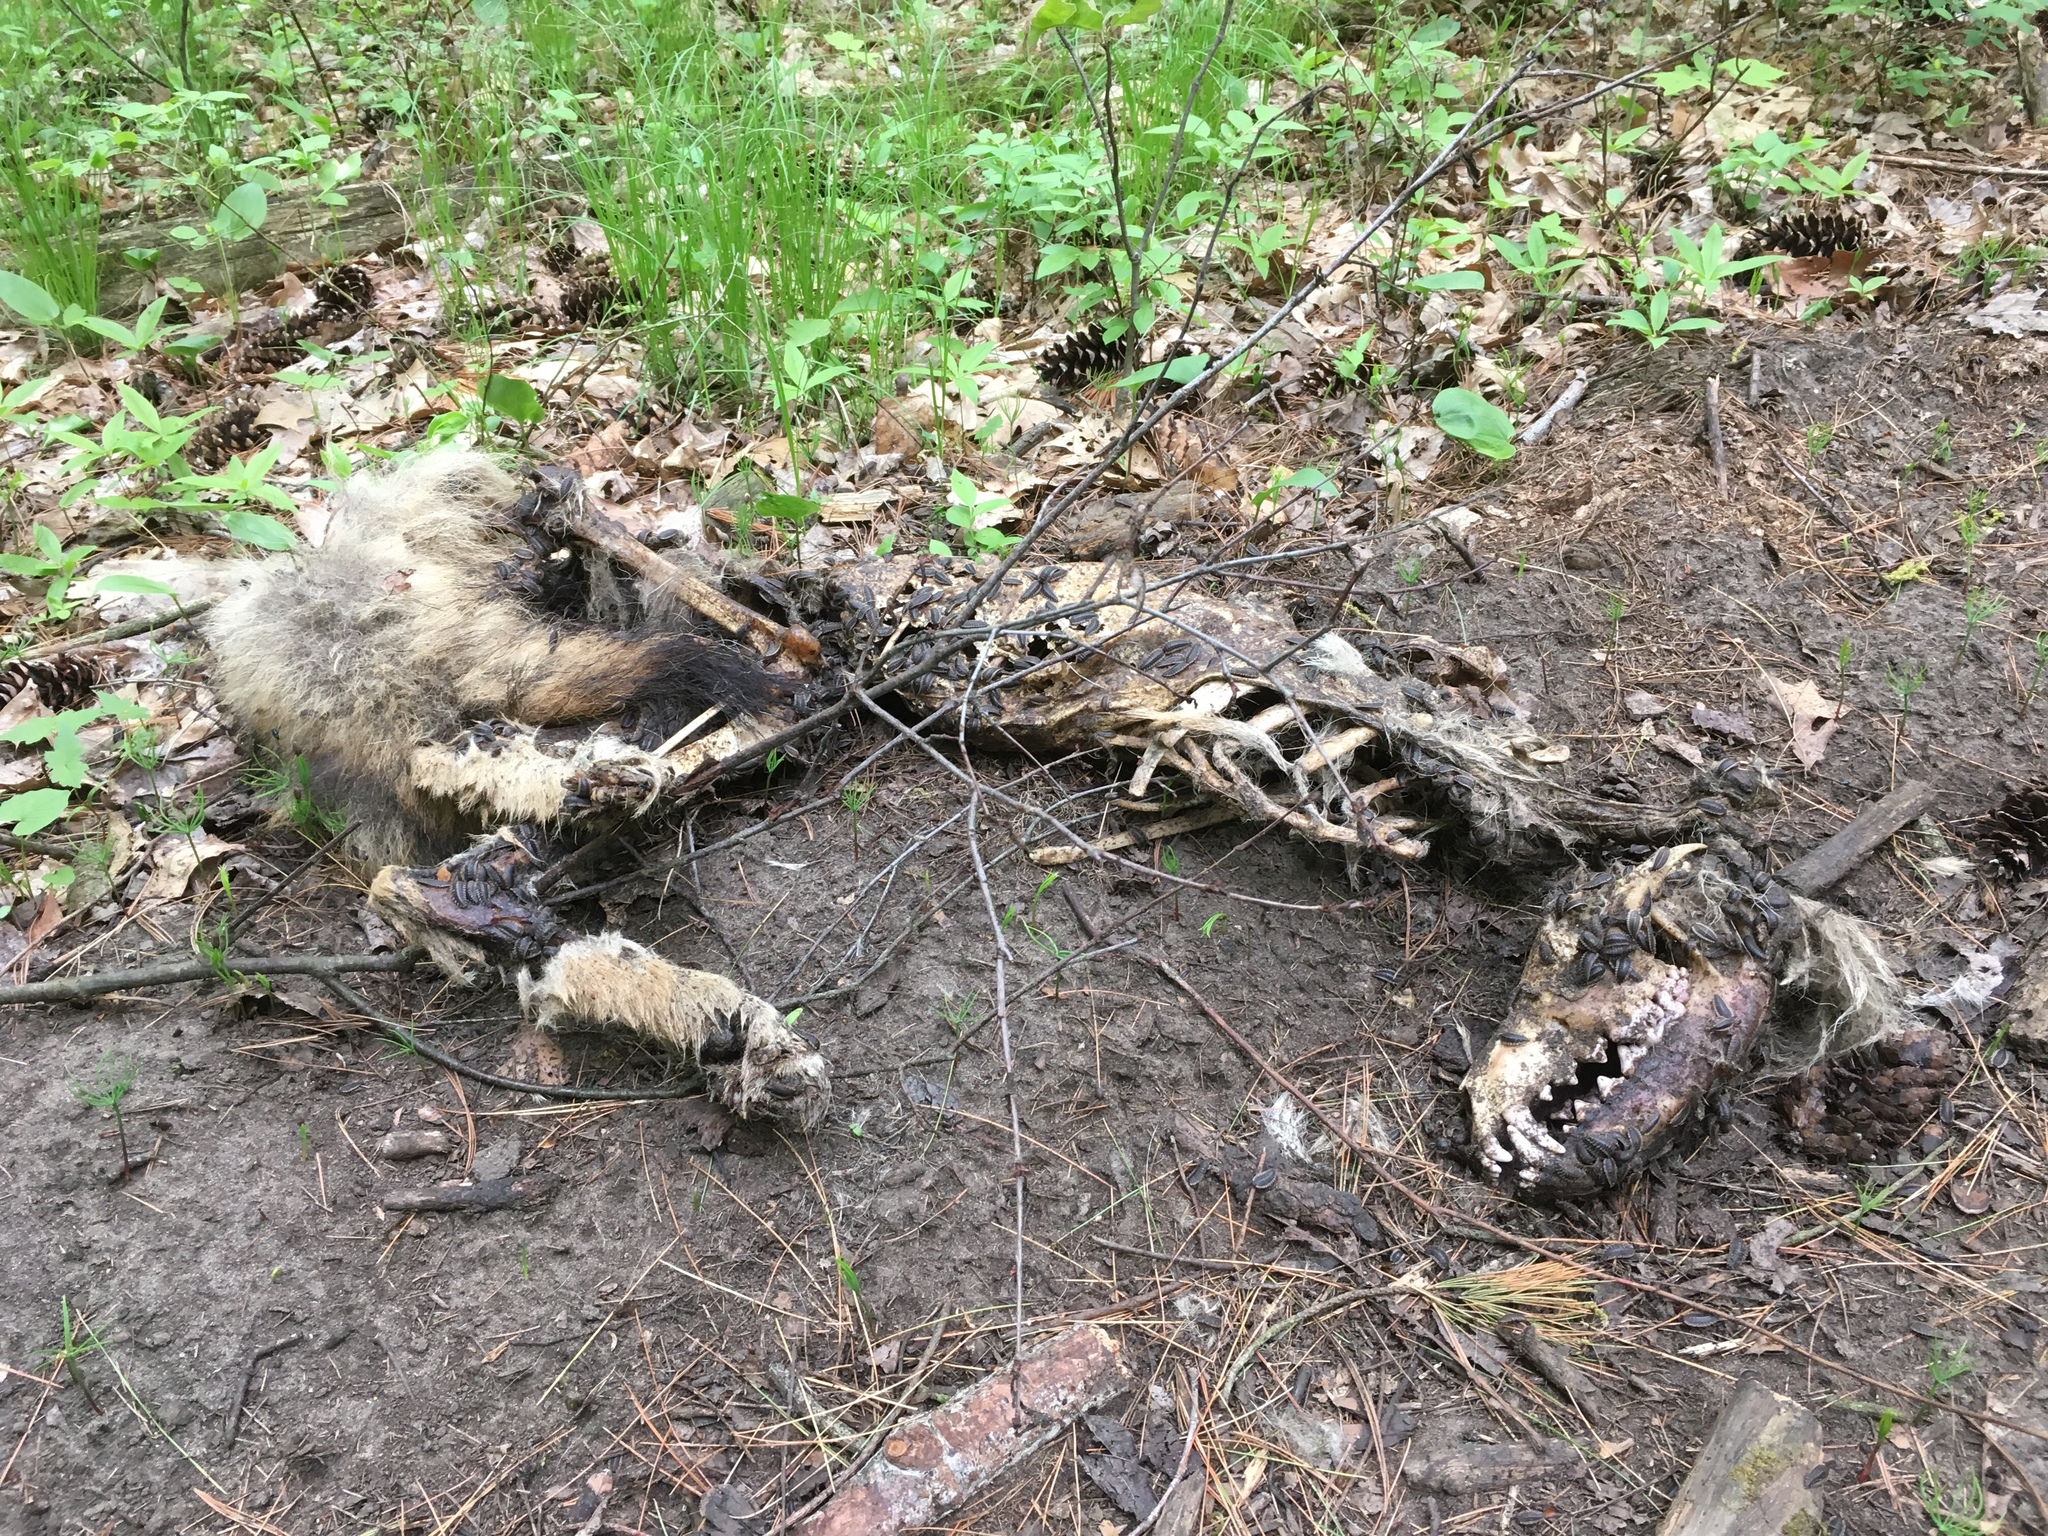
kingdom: Animalia
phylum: Chordata
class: Mammalia
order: Carnivora
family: Canidae
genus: Canis
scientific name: Canis latrans
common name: Coyote
